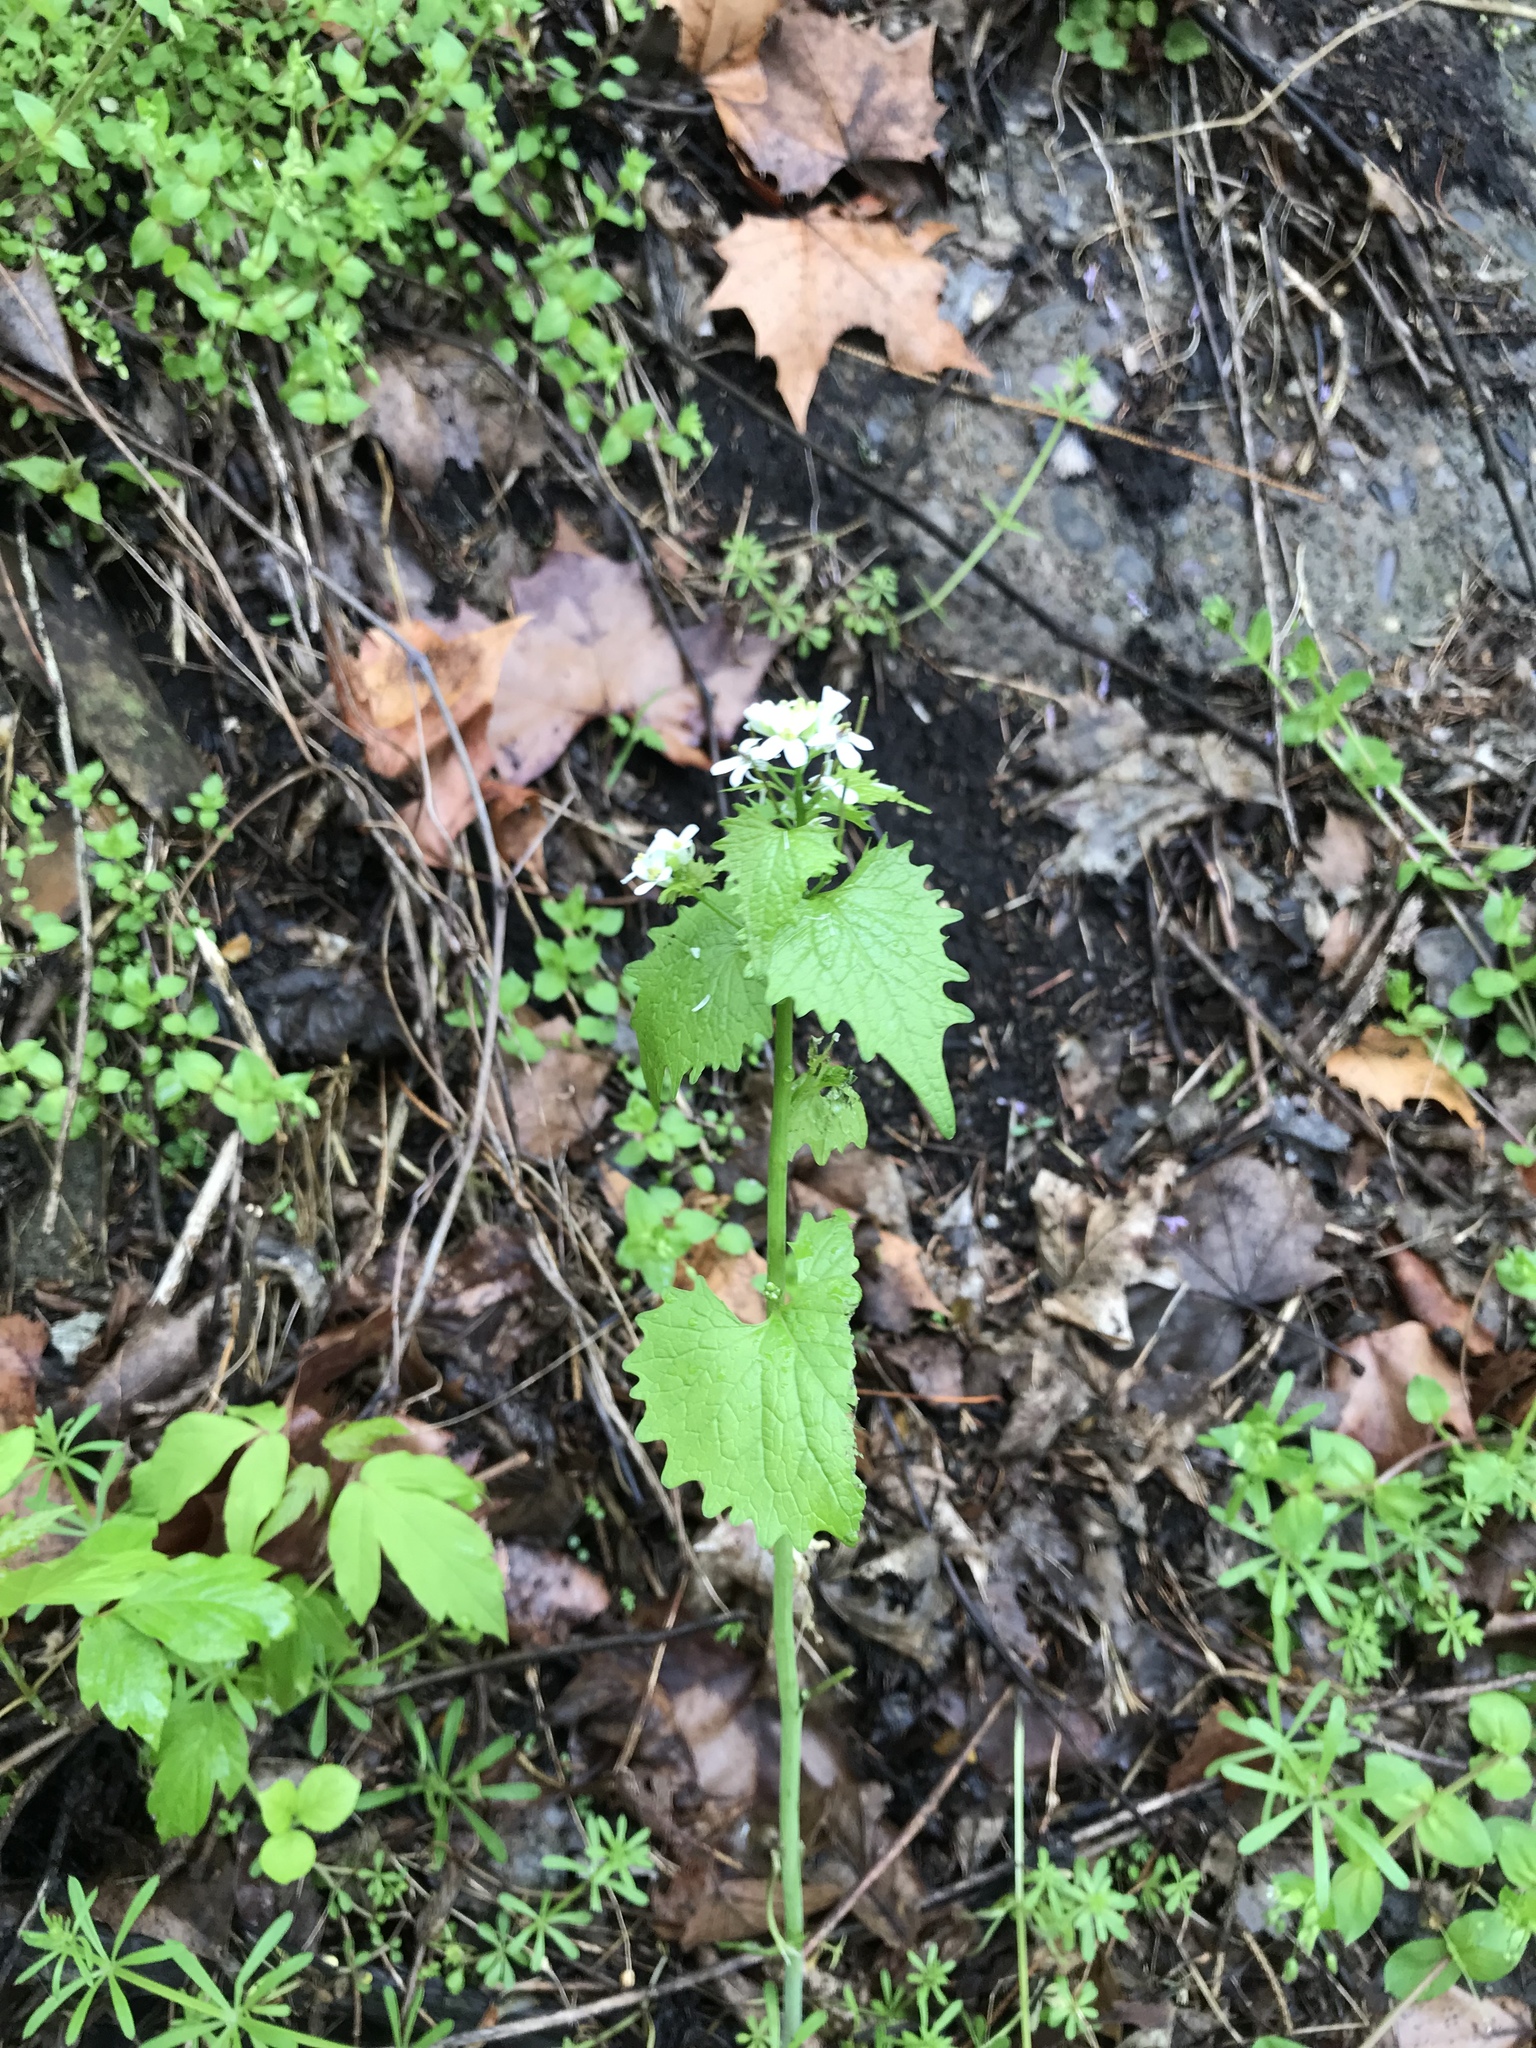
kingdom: Plantae
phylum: Tracheophyta
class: Magnoliopsida
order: Brassicales
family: Brassicaceae
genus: Alliaria
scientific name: Alliaria petiolata
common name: Garlic mustard
